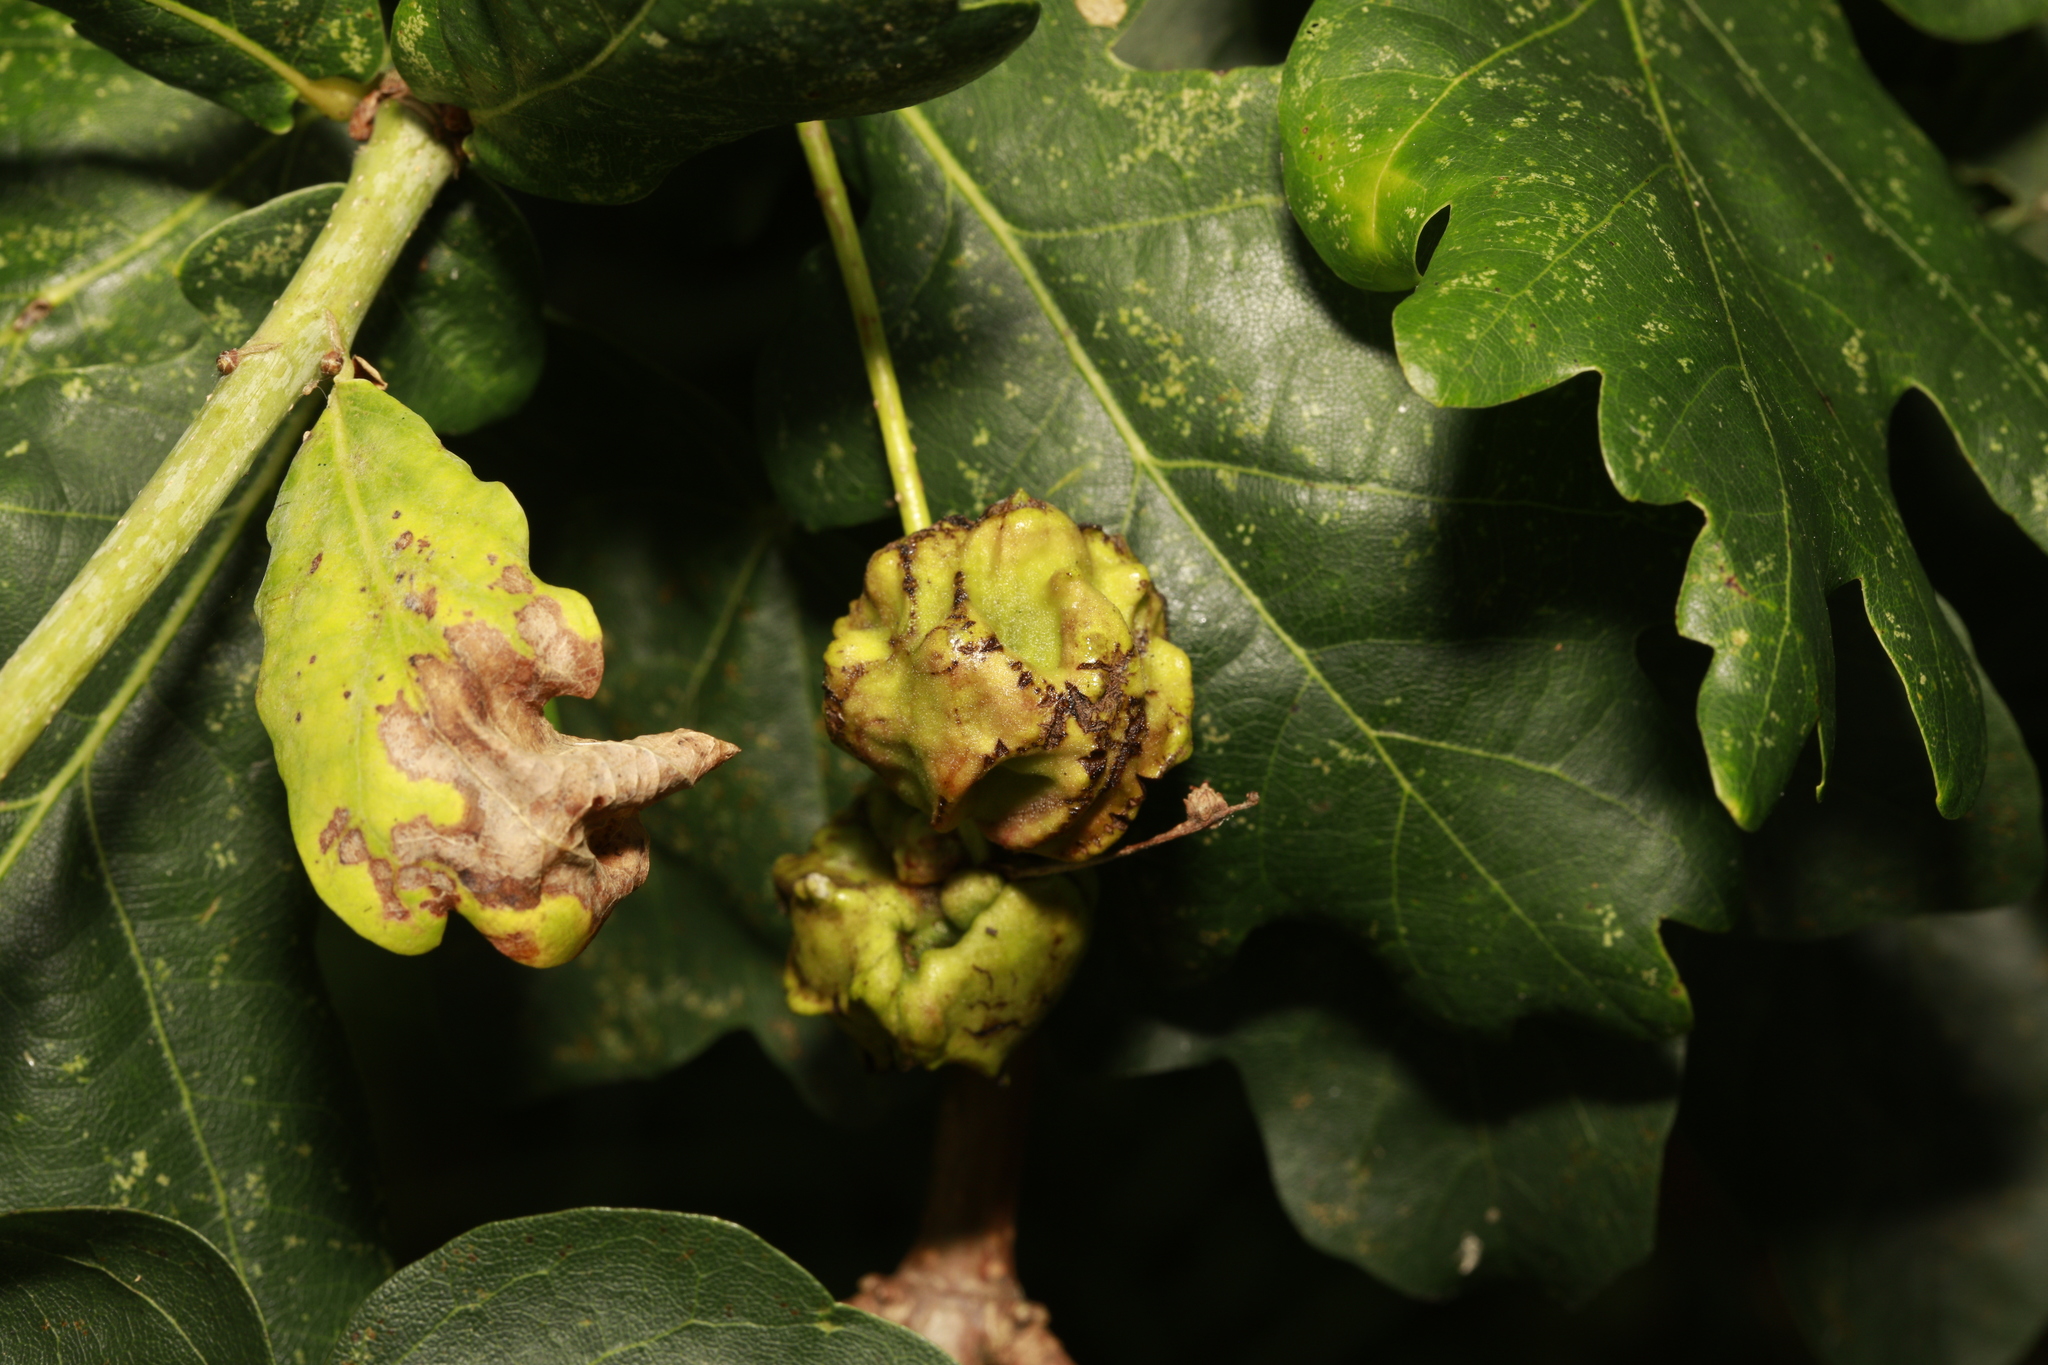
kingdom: Animalia
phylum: Arthropoda
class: Insecta
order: Hymenoptera
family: Cynipidae
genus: Andricus
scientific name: Andricus quercuscalicis
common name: Knopper gall
